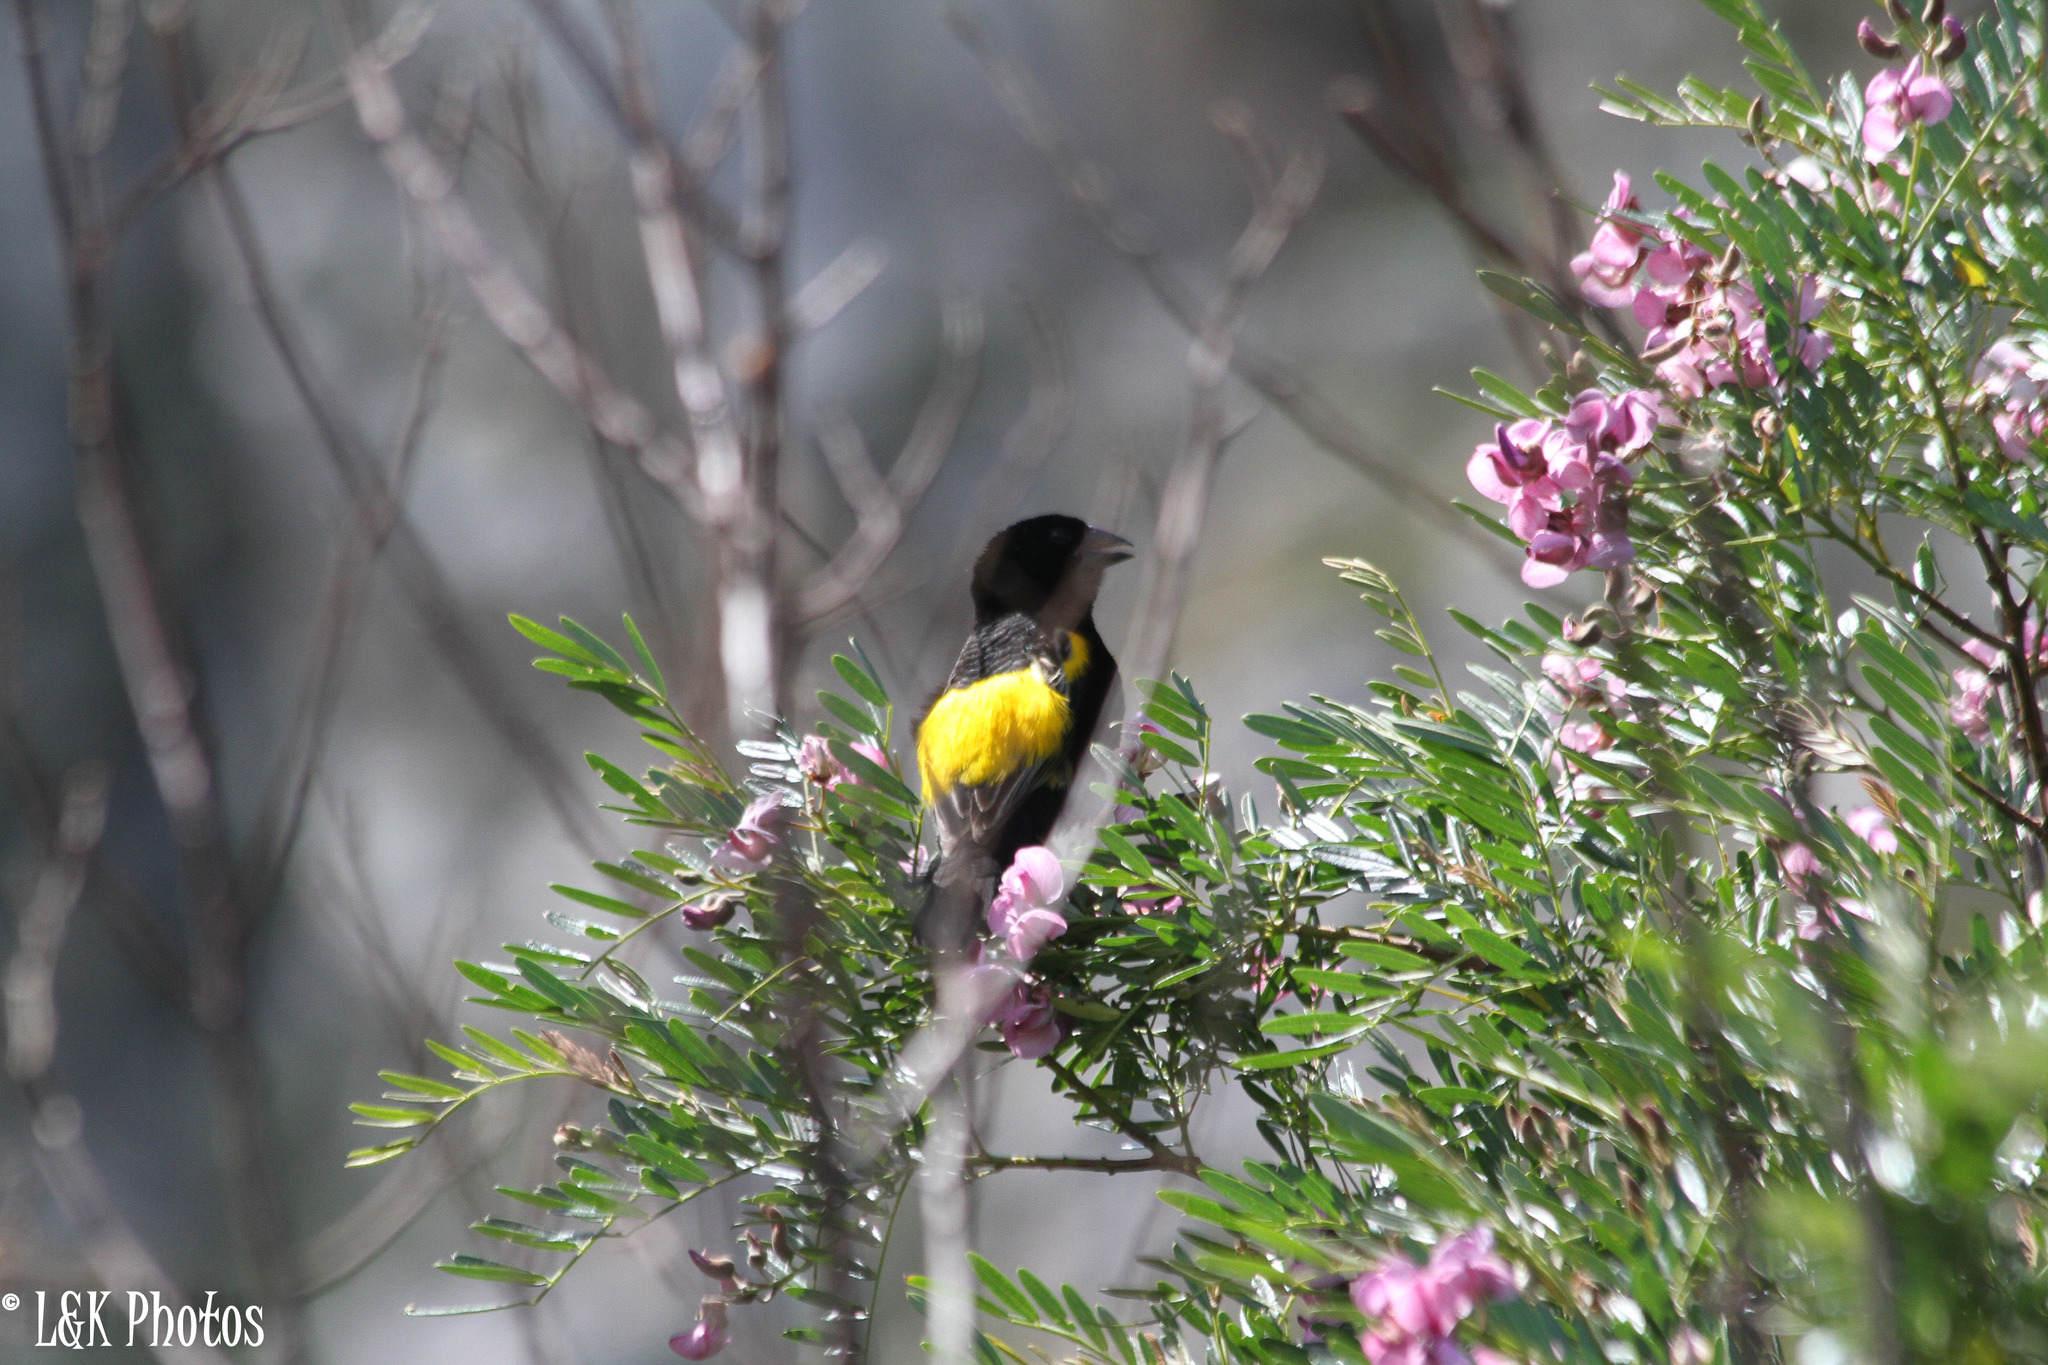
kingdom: Animalia
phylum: Chordata
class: Aves
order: Passeriformes
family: Ploceidae
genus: Euplectes
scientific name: Euplectes capensis
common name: Yellow bishop
